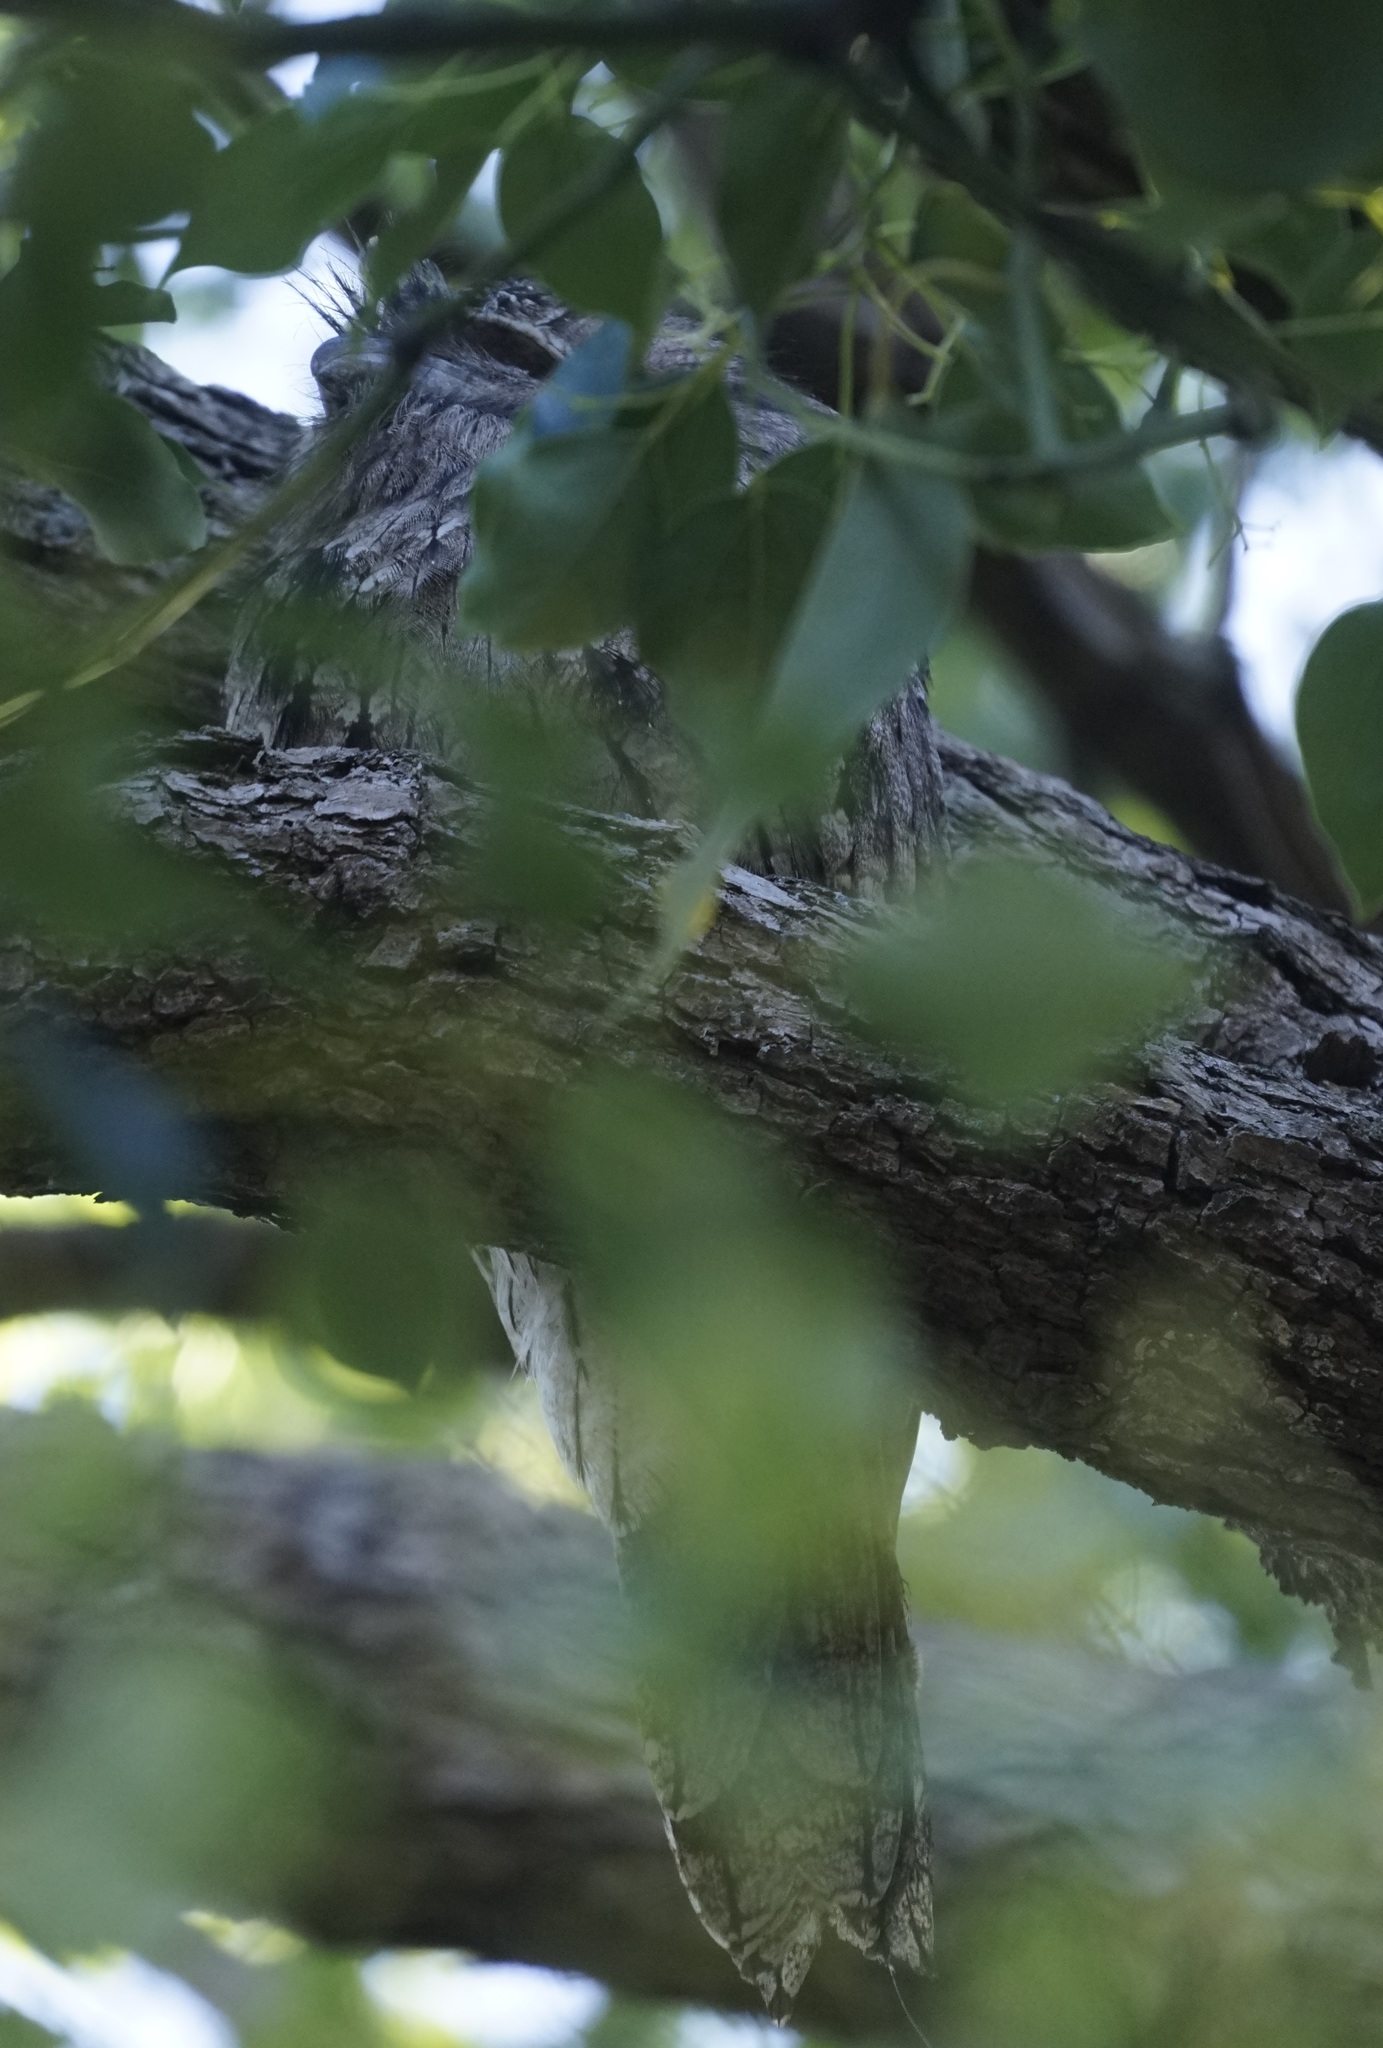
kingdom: Animalia
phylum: Chordata
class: Aves
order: Caprimulgiformes
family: Podargidae
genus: Podargus
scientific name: Podargus strigoides
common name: Tawny frogmouth
